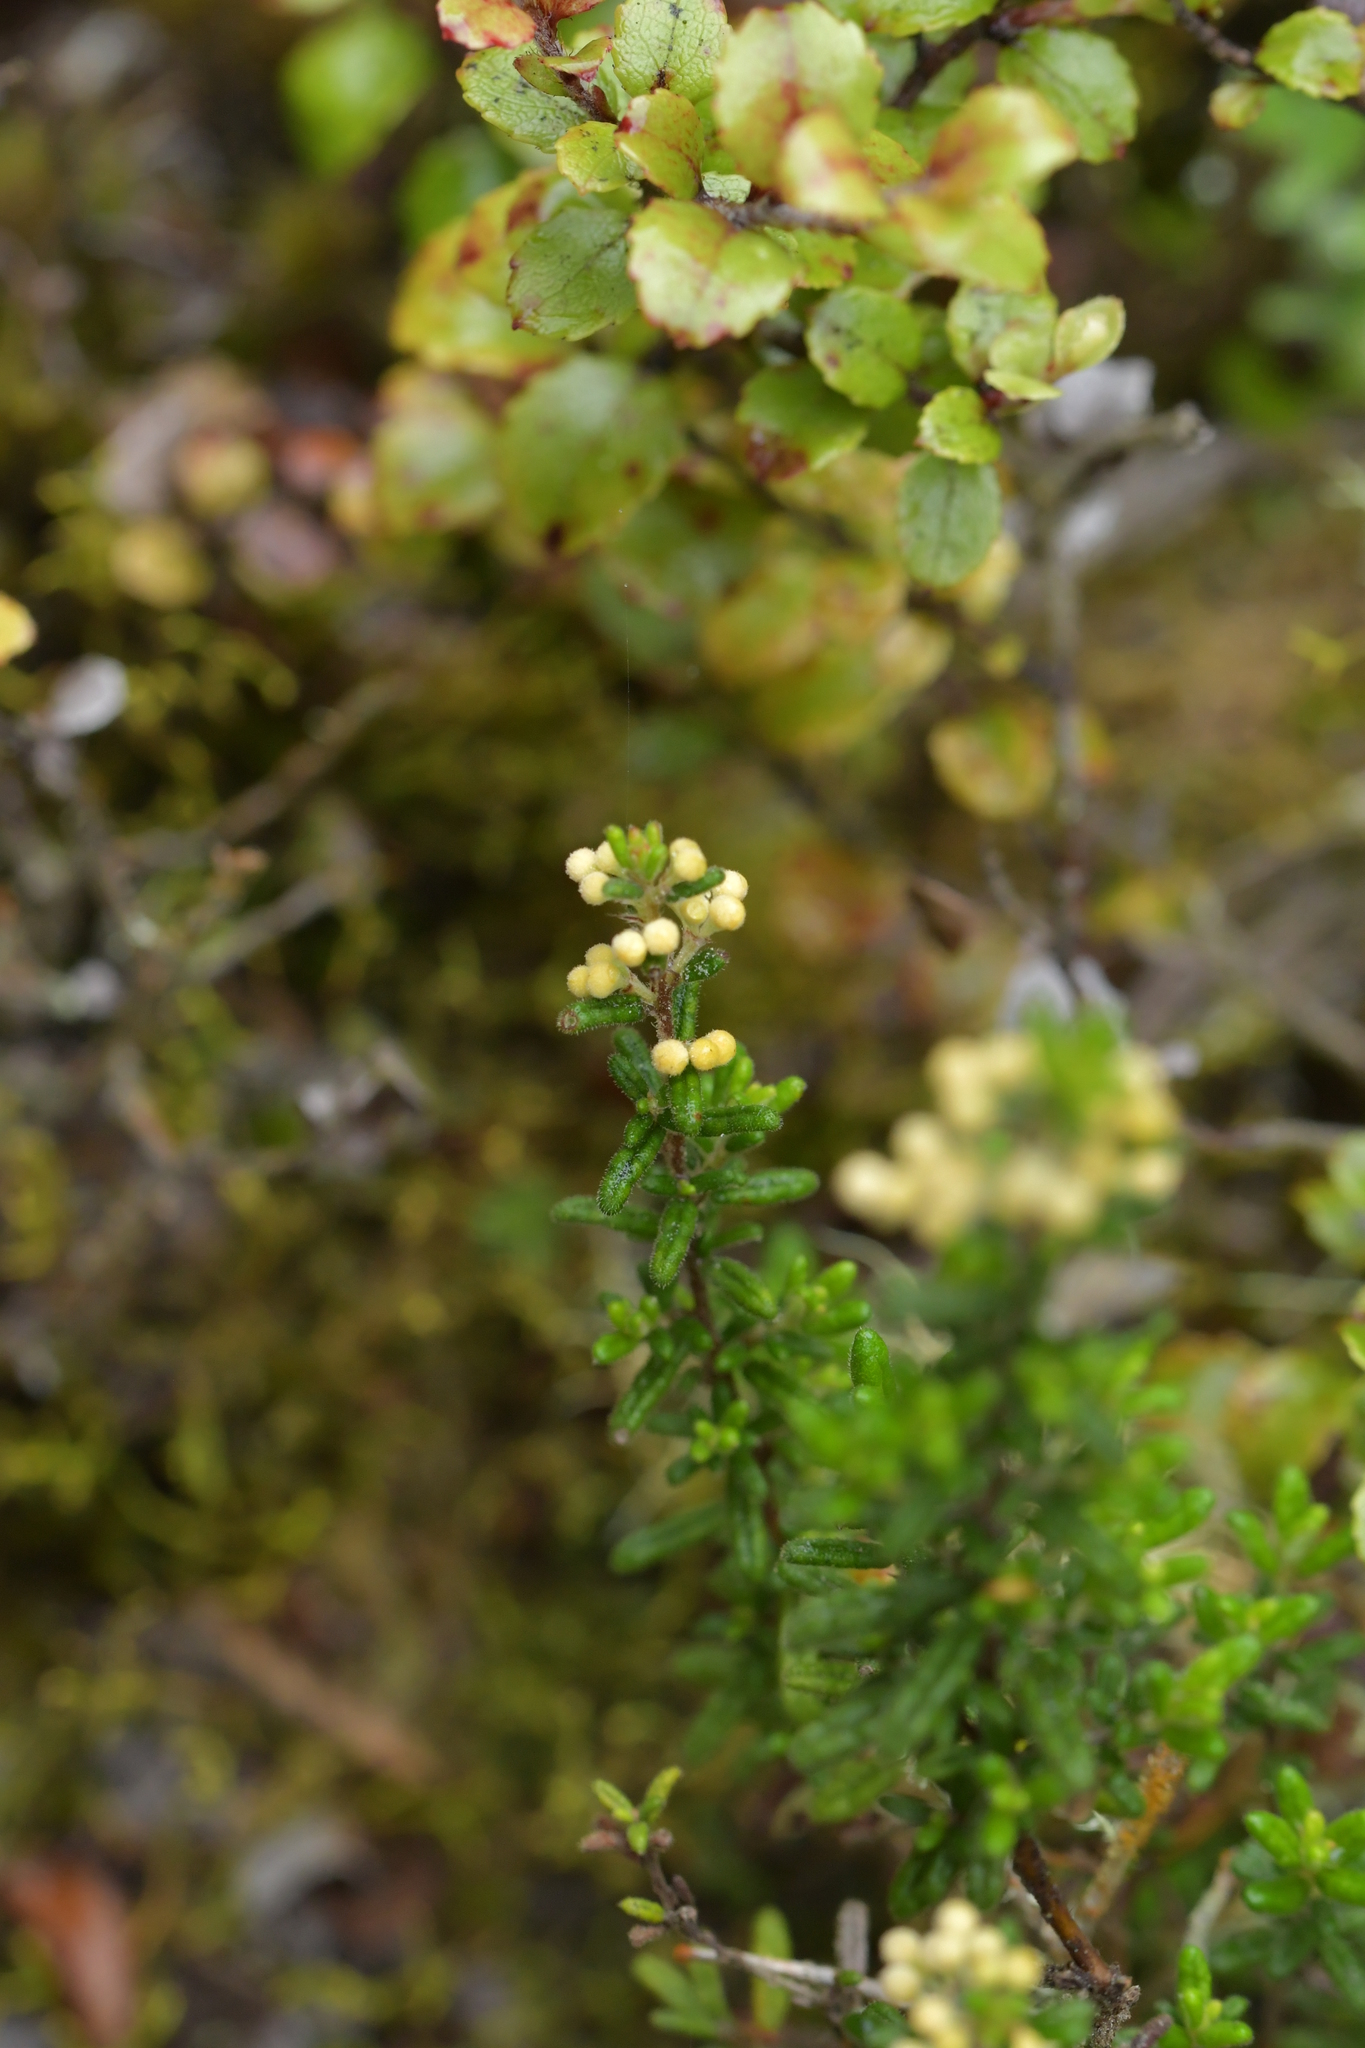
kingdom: Plantae
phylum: Tracheophyta
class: Magnoliopsida
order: Rosales
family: Rhamnaceae
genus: Pomaderris
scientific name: Pomaderris amoena
